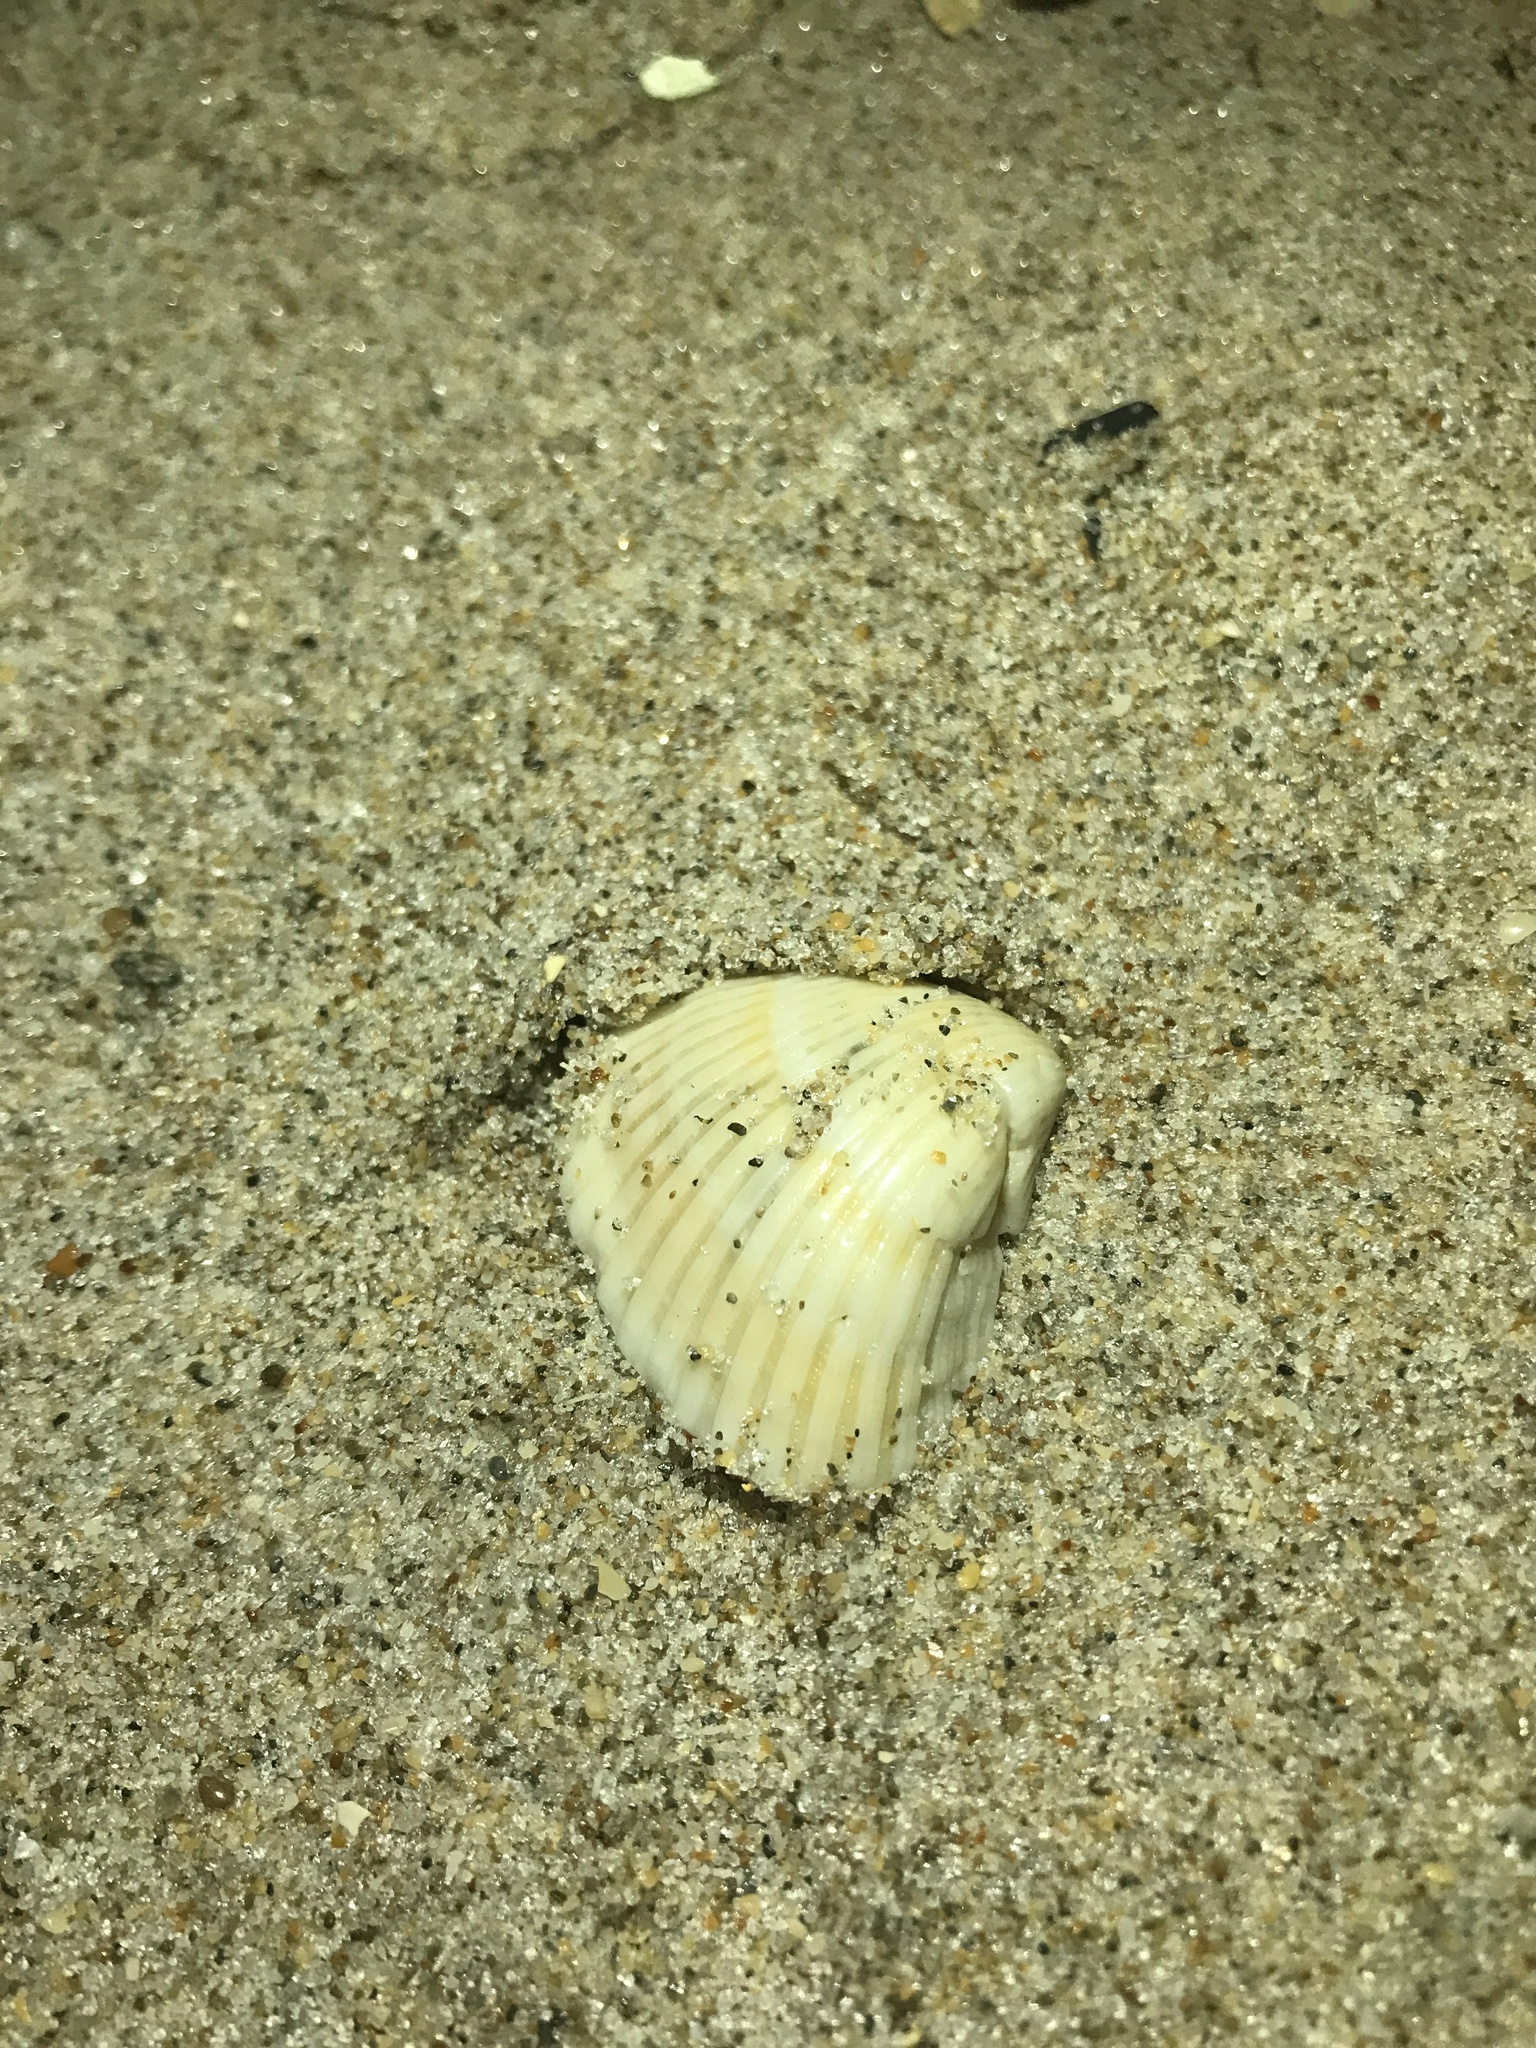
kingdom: Animalia
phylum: Mollusca
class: Bivalvia
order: Arcida
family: Noetiidae
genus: Noetia
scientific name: Noetia ponderosa
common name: Ponderous ark
